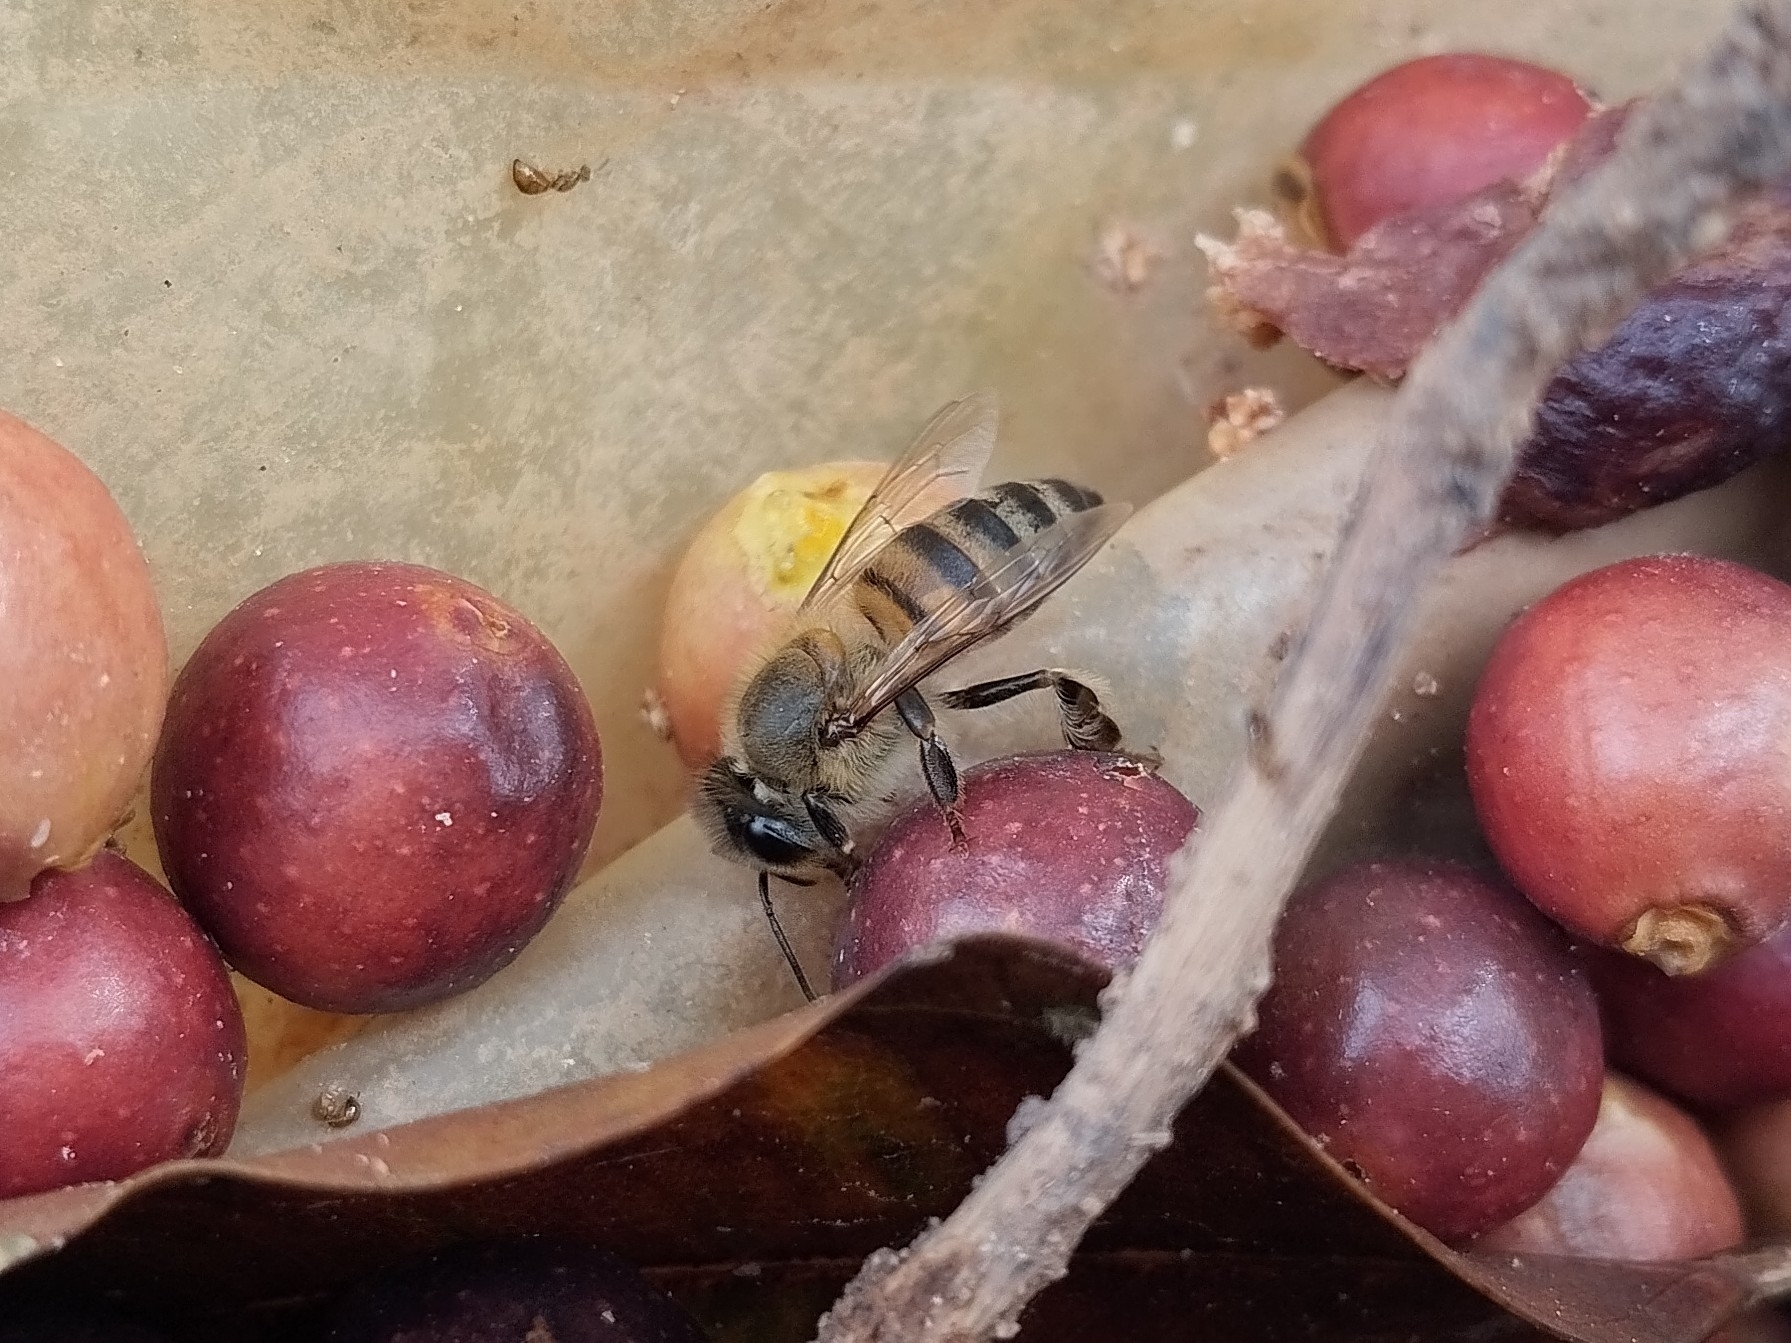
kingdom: Animalia
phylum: Arthropoda
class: Insecta
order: Hymenoptera
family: Apidae
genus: Apis
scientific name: Apis mellifera
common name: Honey bee
